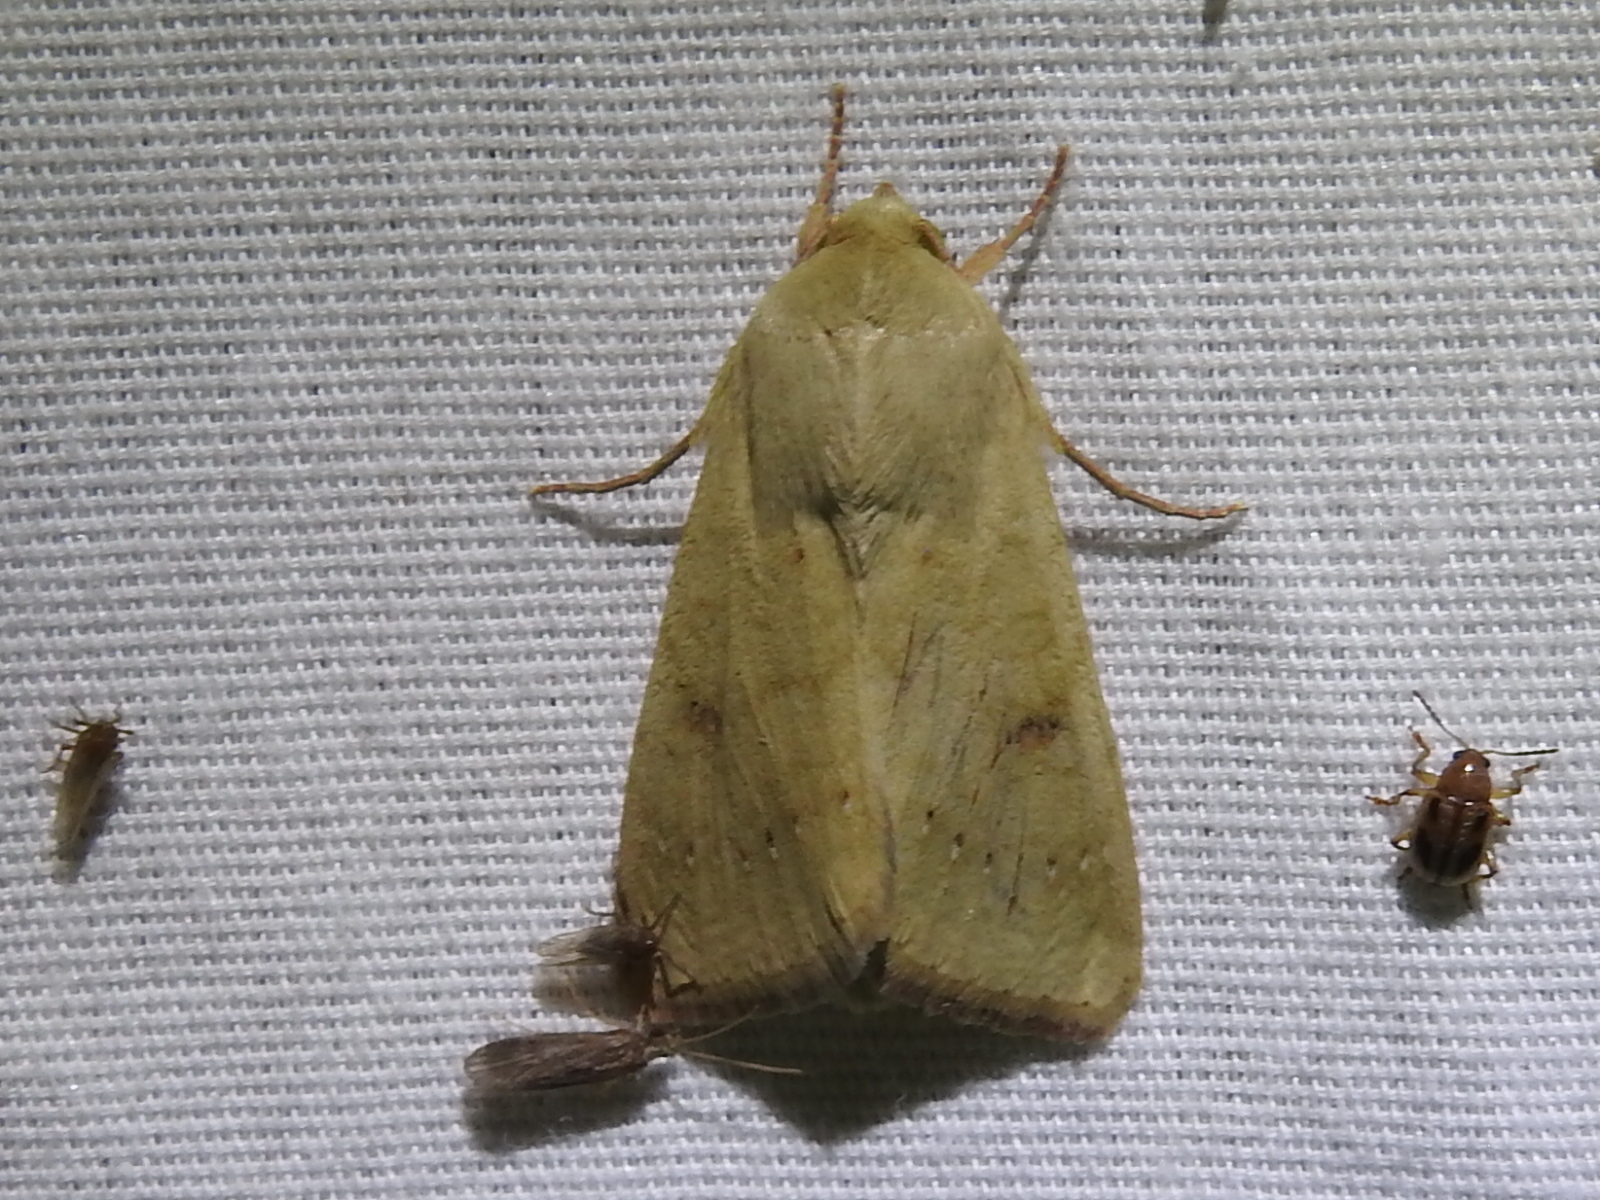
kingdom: Animalia
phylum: Arthropoda
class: Insecta
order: Lepidoptera
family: Noctuidae
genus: Helicoverpa
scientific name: Helicoverpa zea
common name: Bollworm
